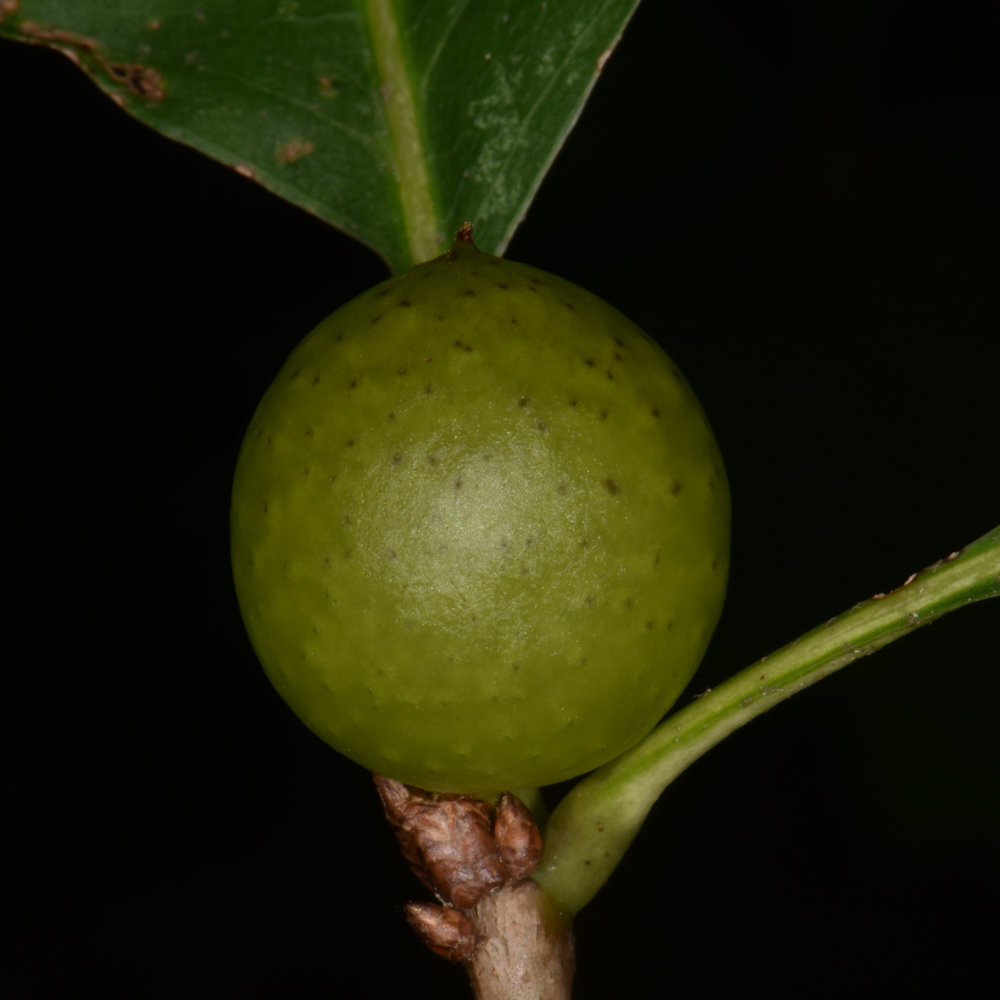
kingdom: Animalia
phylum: Arthropoda
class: Insecta
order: Hymenoptera
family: Cynipidae
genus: Amphibolips
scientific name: Amphibolips
